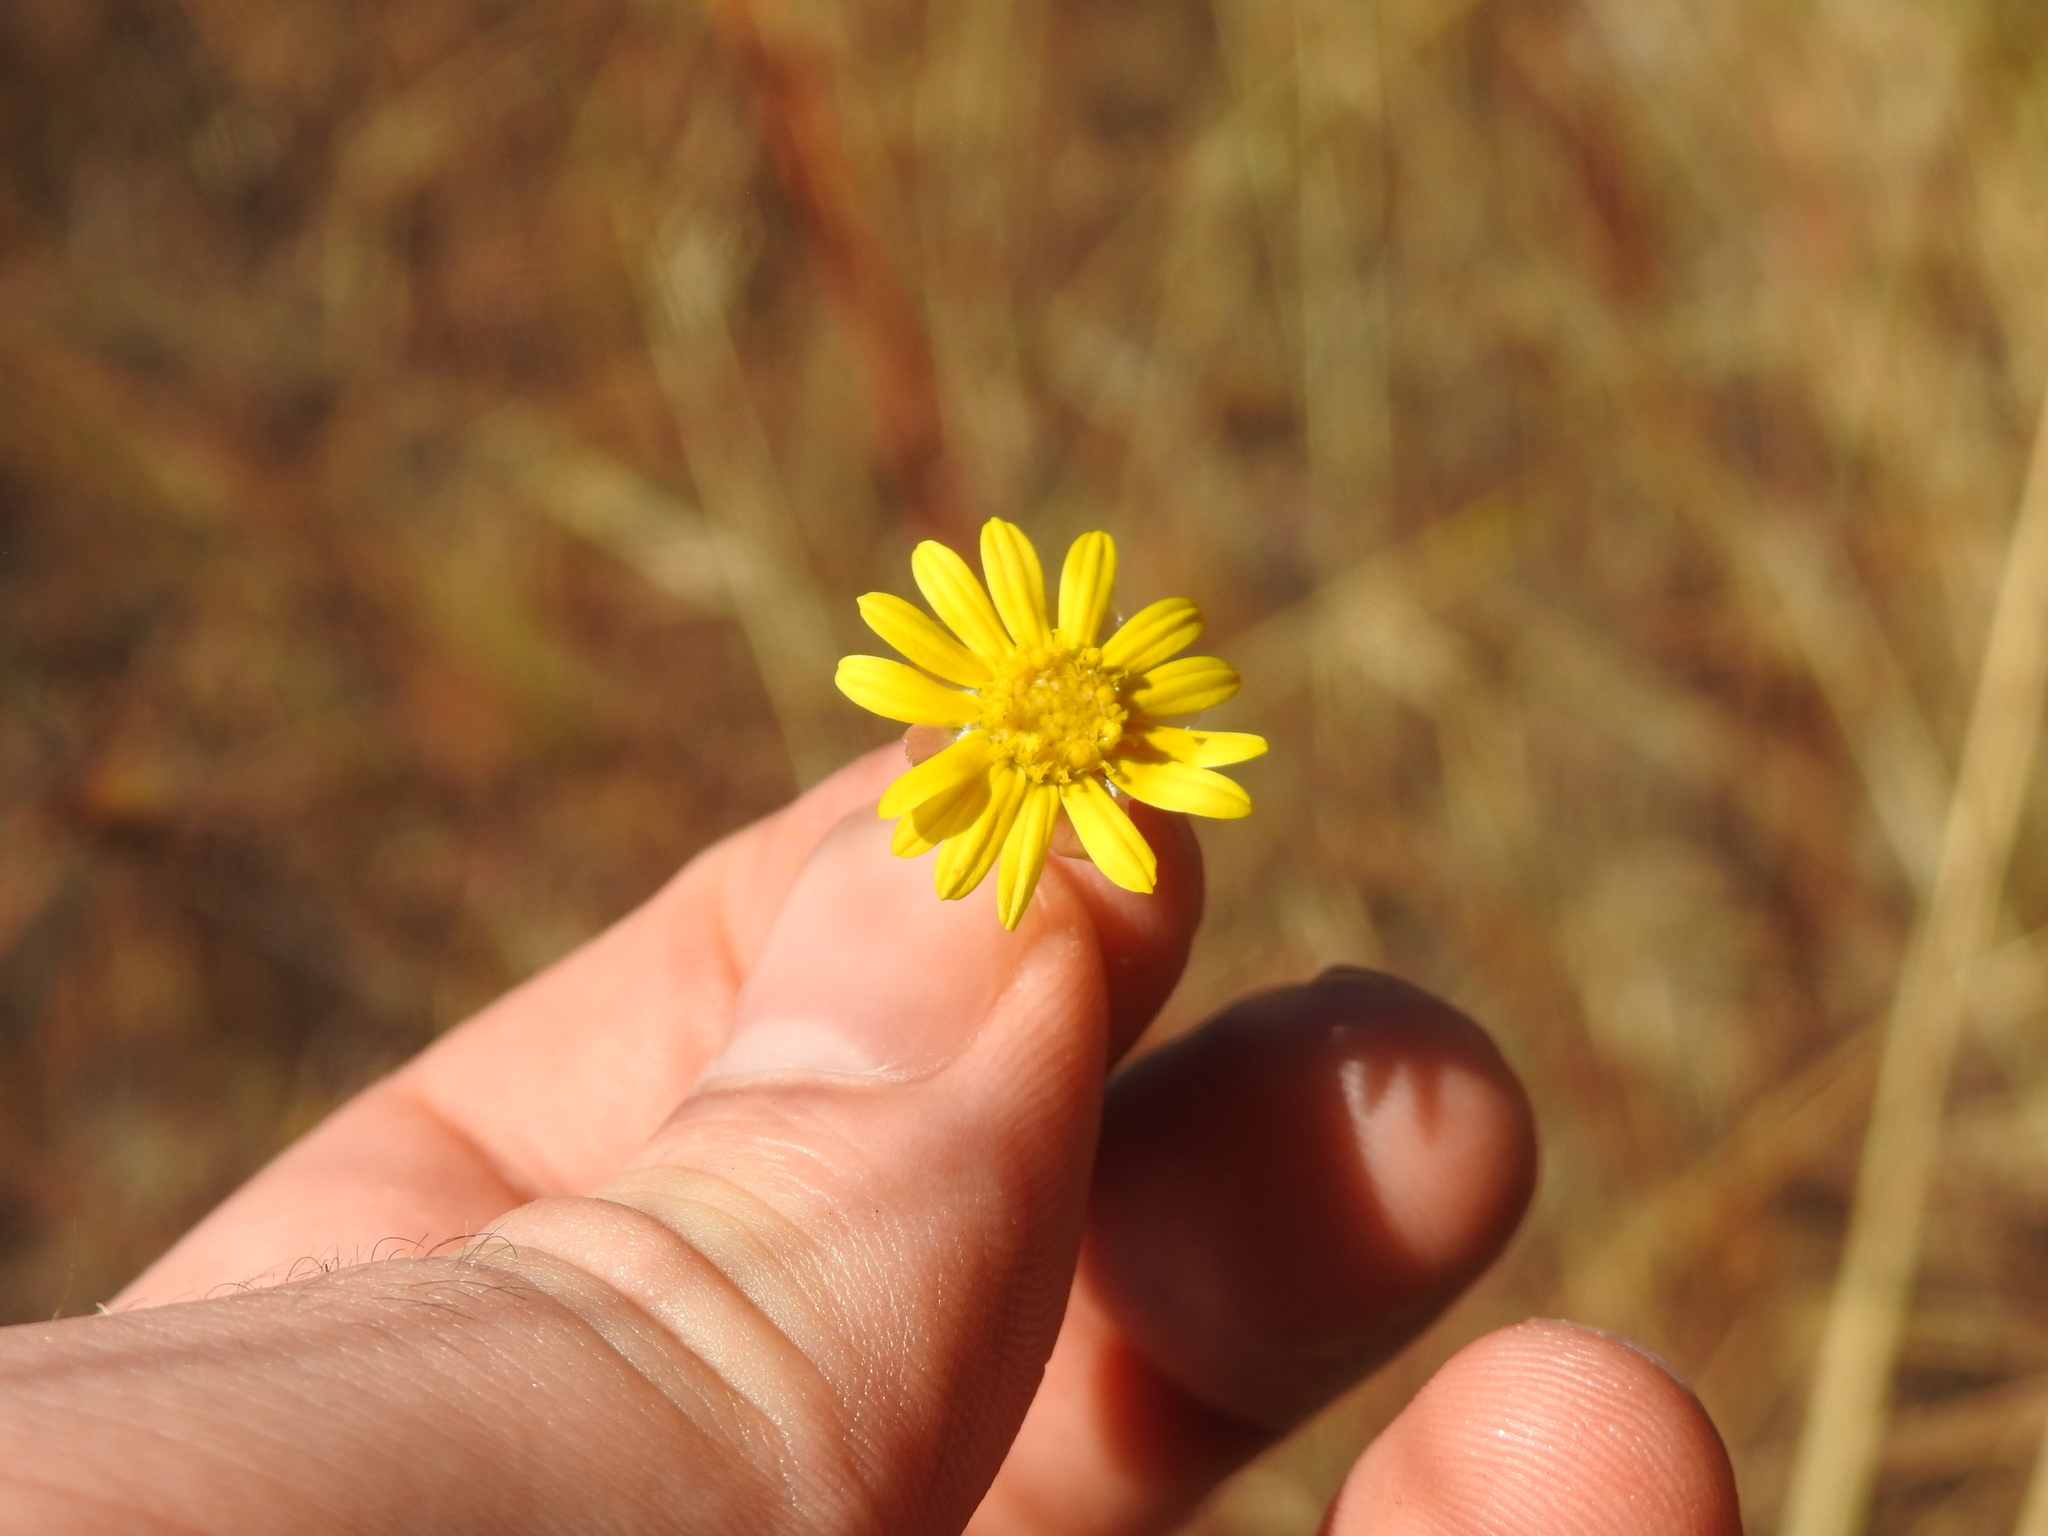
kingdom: Plantae
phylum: Tracheophyta
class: Magnoliopsida
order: Asterales
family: Asteraceae
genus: Ursinia
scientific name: Ursinia nana
